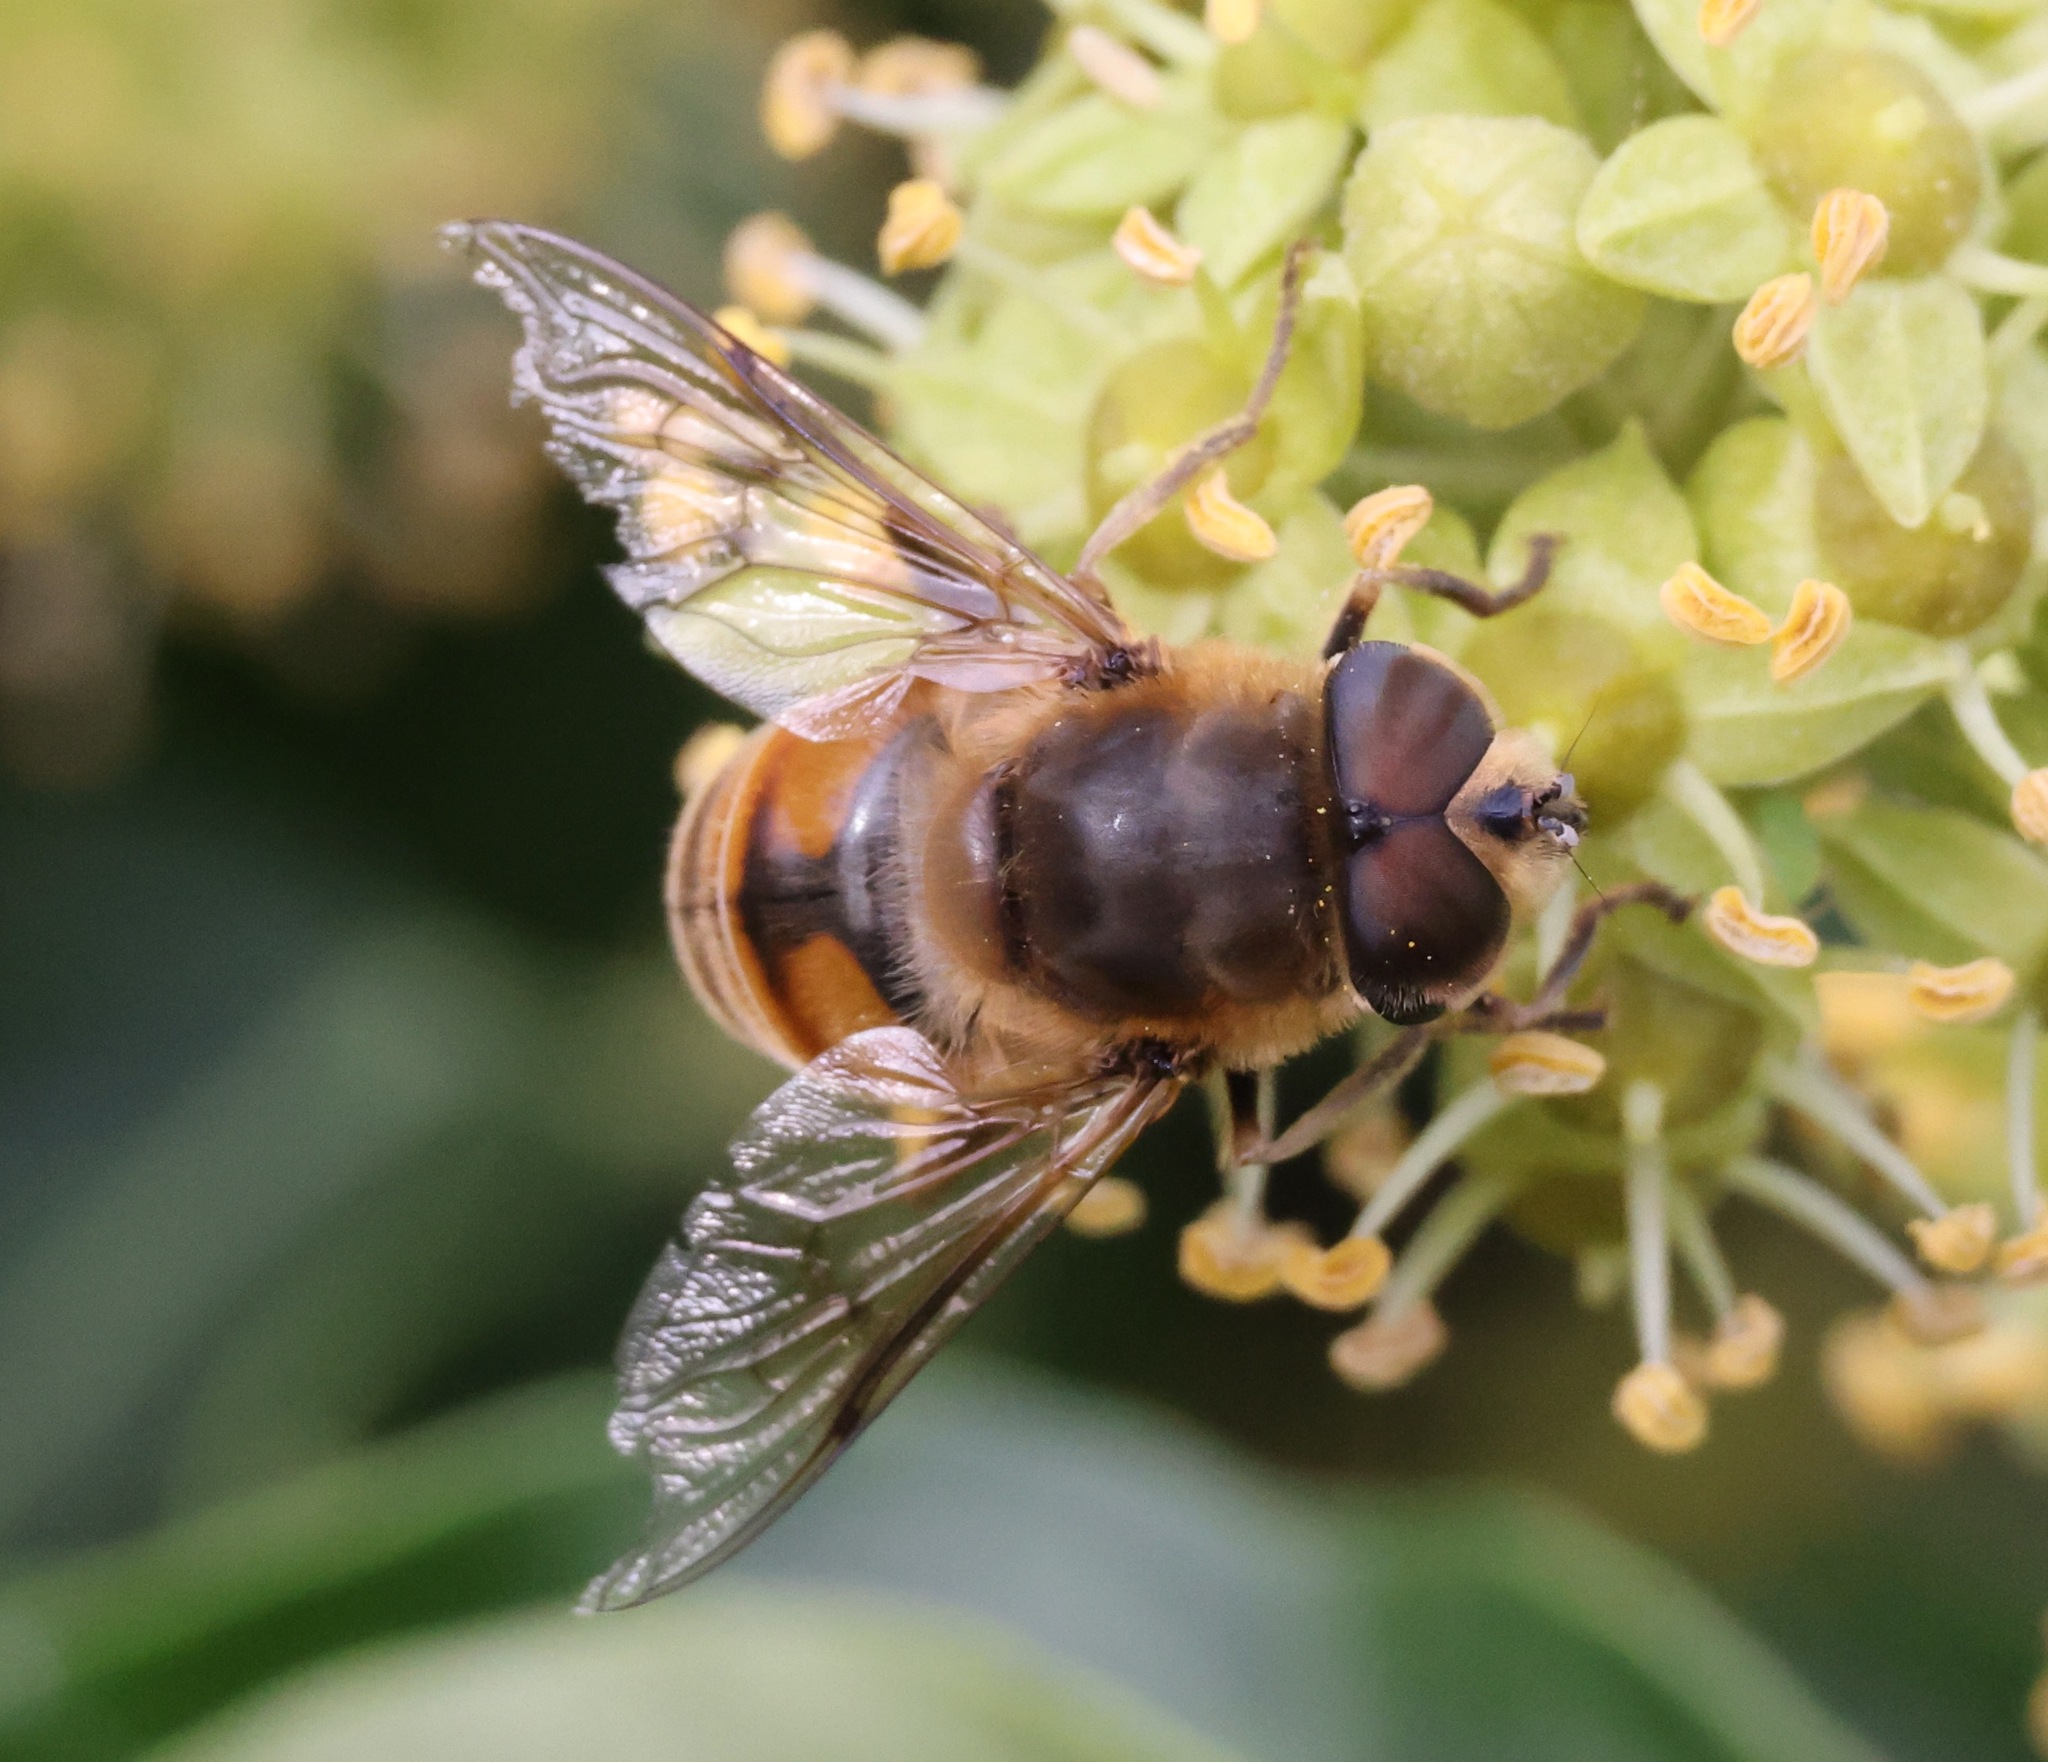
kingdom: Animalia
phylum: Arthropoda
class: Insecta
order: Diptera
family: Syrphidae
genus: Eristalis
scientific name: Eristalis tenax
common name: Drone fly
